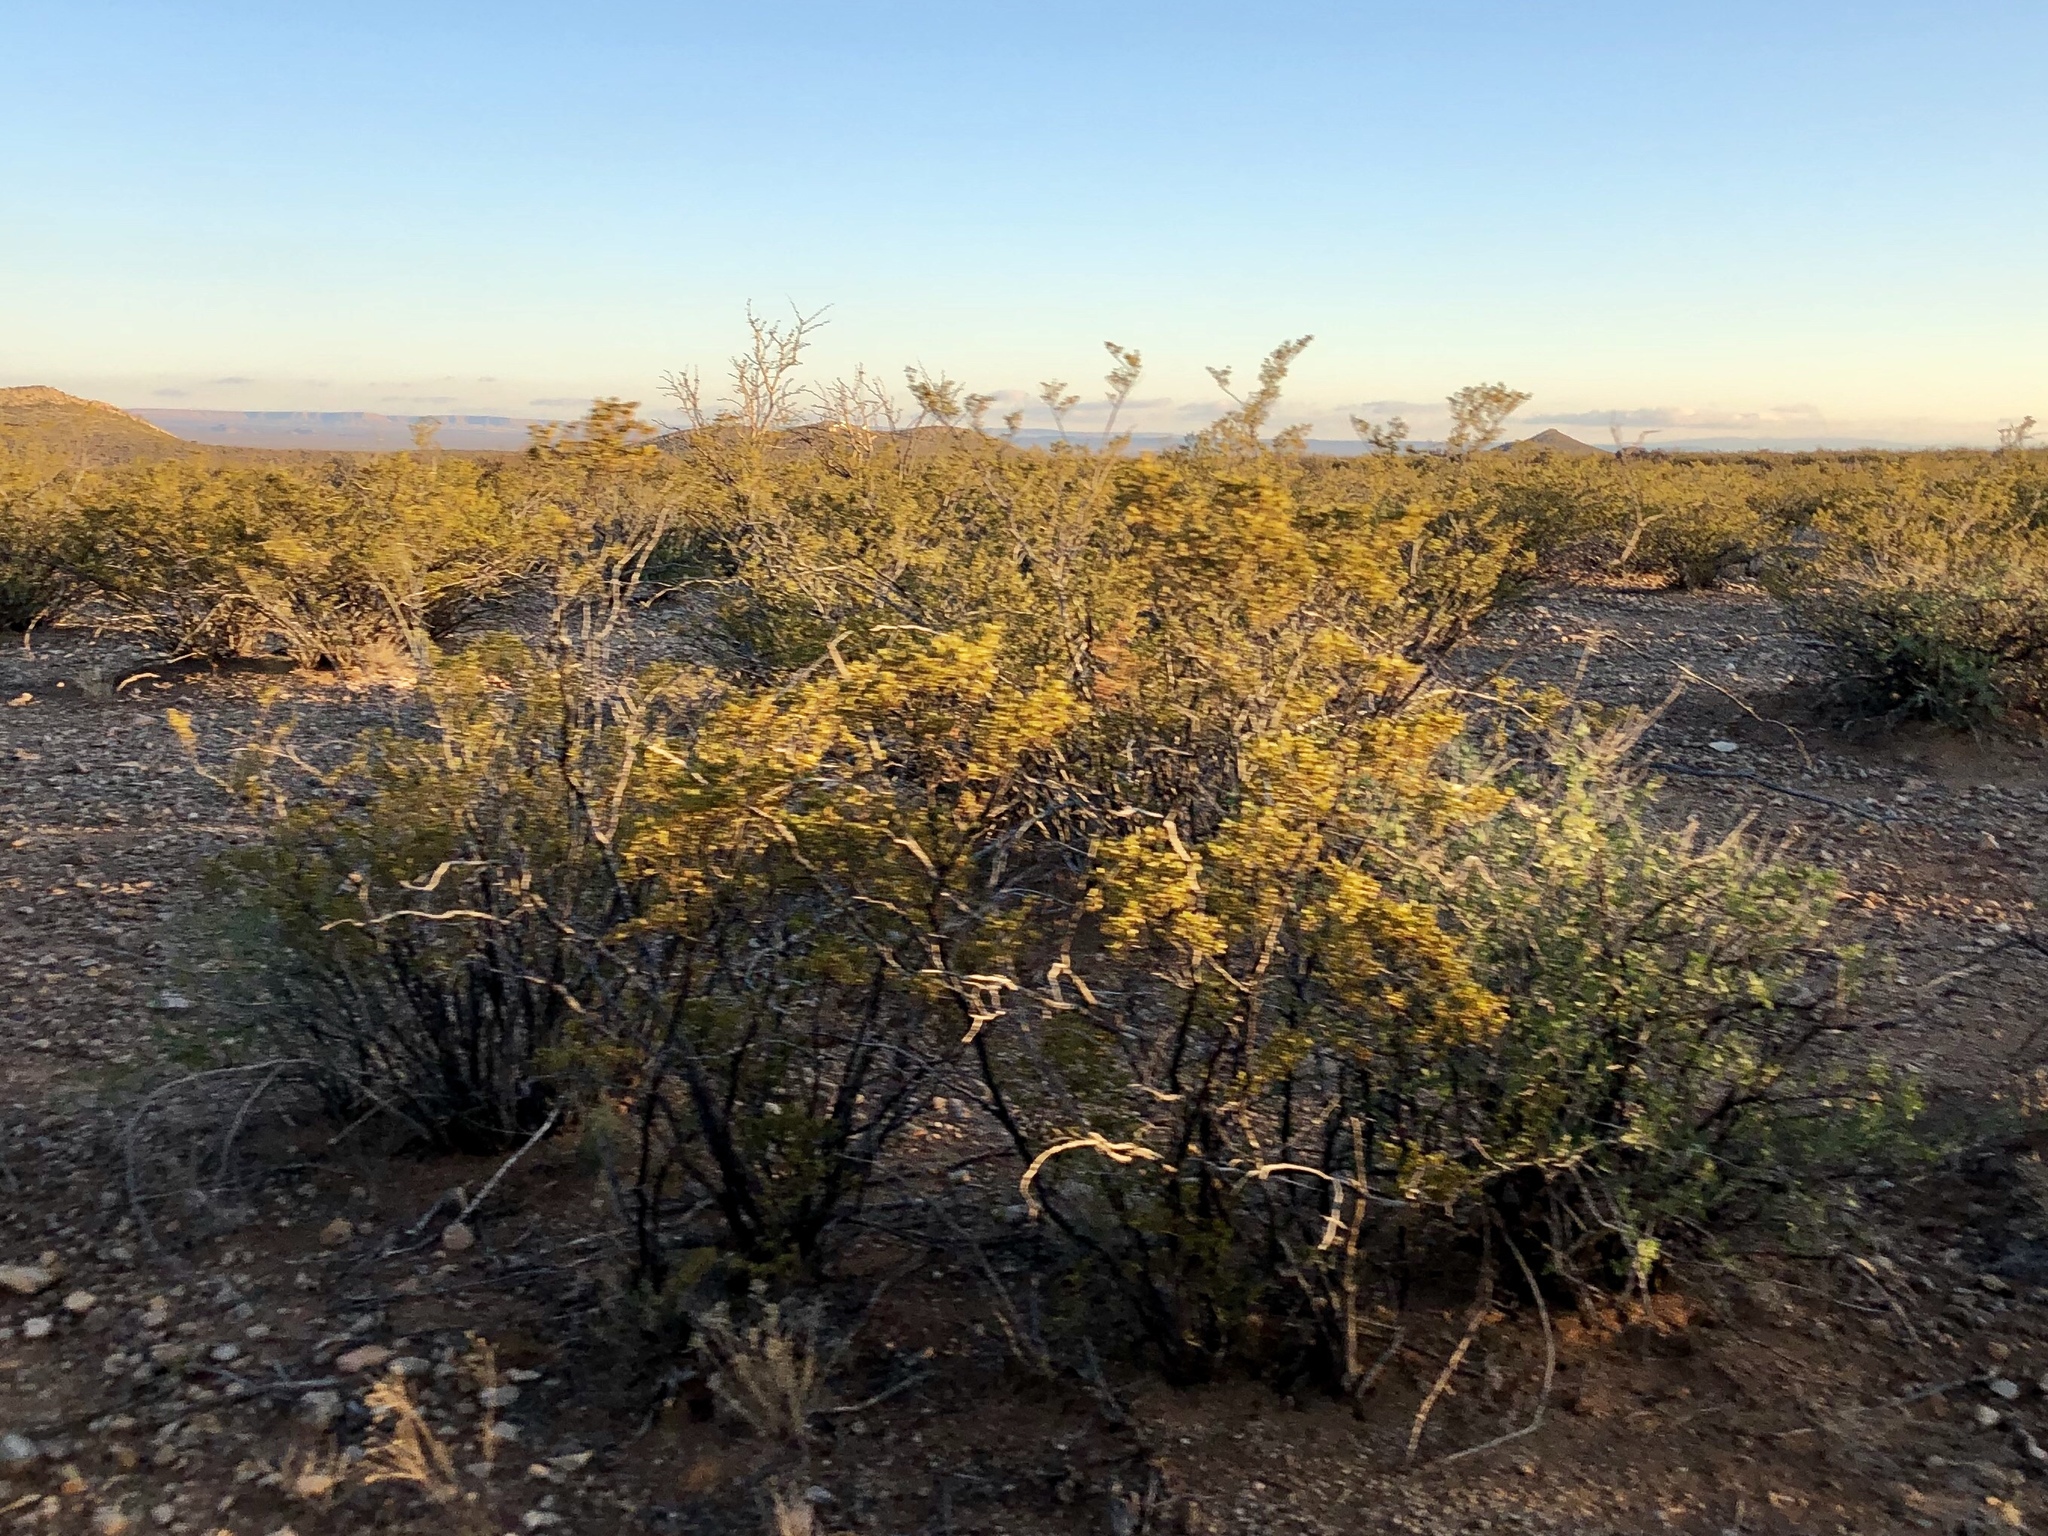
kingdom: Plantae
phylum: Tracheophyta
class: Magnoliopsida
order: Zygophyllales
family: Zygophyllaceae
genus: Larrea
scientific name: Larrea tridentata
